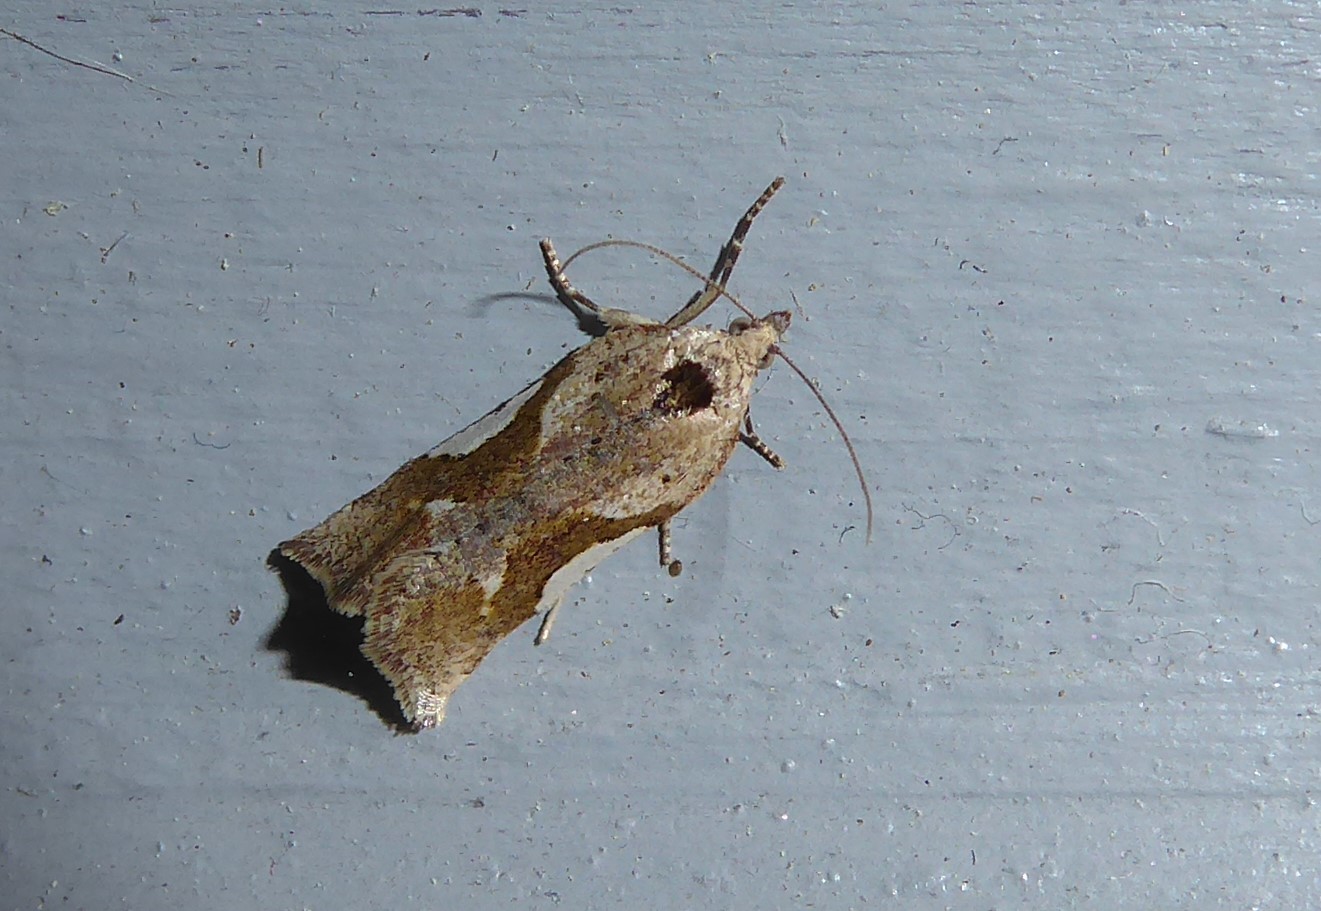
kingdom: Animalia
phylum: Arthropoda
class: Insecta
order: Lepidoptera
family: Tortricidae
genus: Pyrgotis
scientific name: Pyrgotis plagiatana
